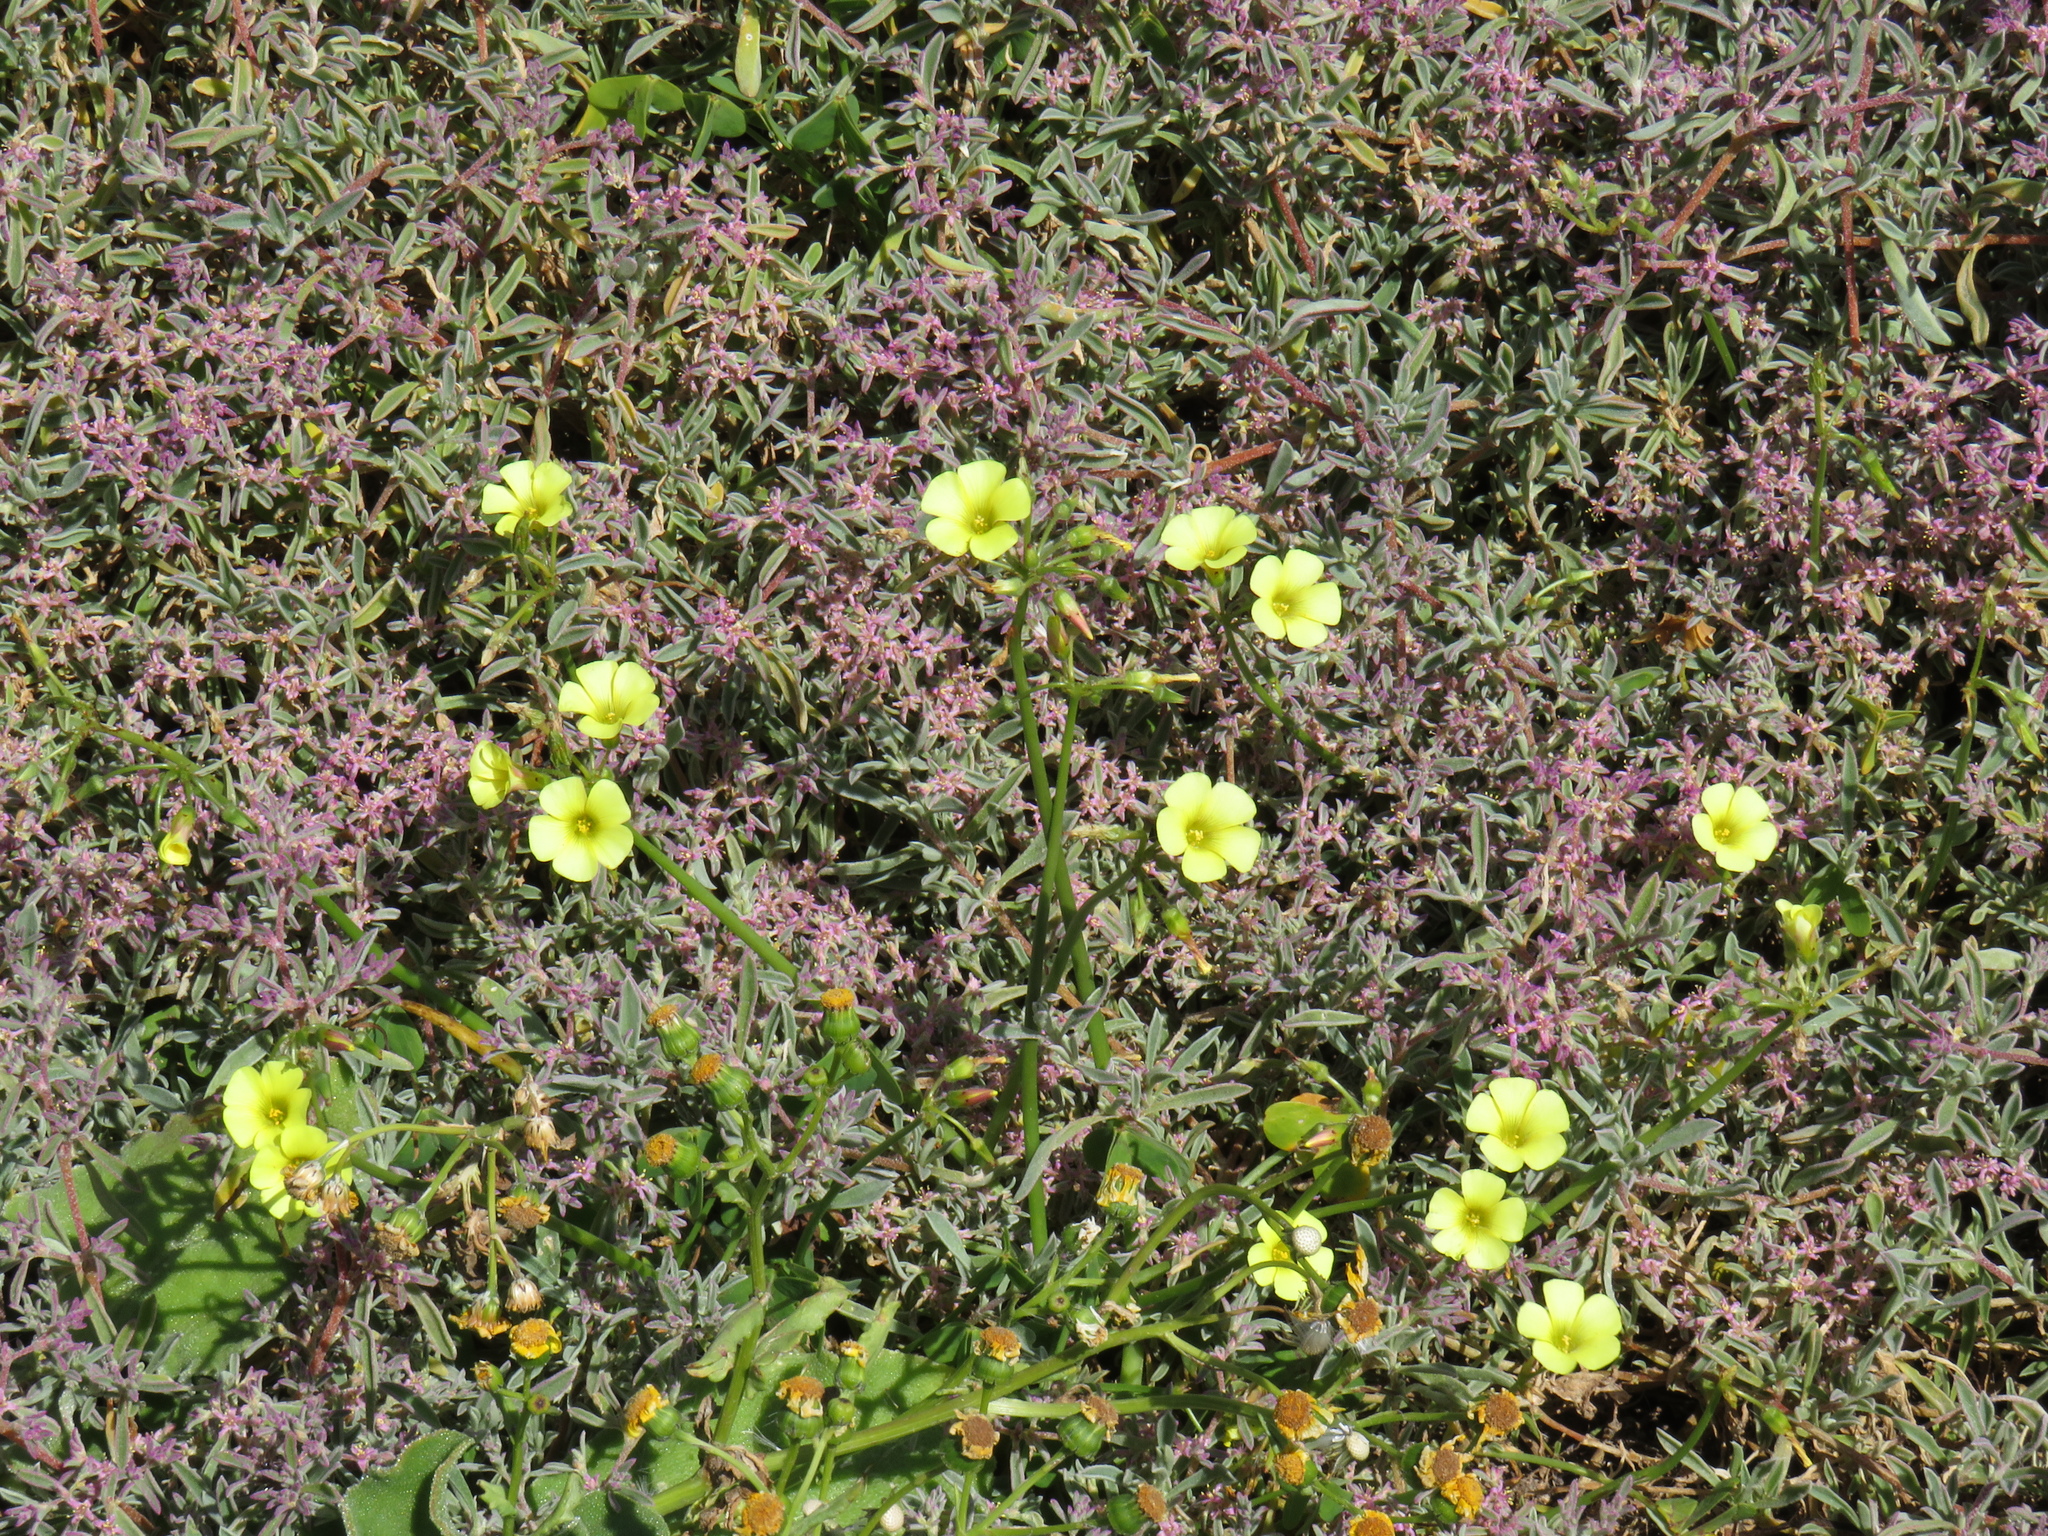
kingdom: Plantae
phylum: Tracheophyta
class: Magnoliopsida
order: Oxalidales
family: Oxalidaceae
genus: Oxalis
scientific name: Oxalis pes-caprae
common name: Bermuda-buttercup
